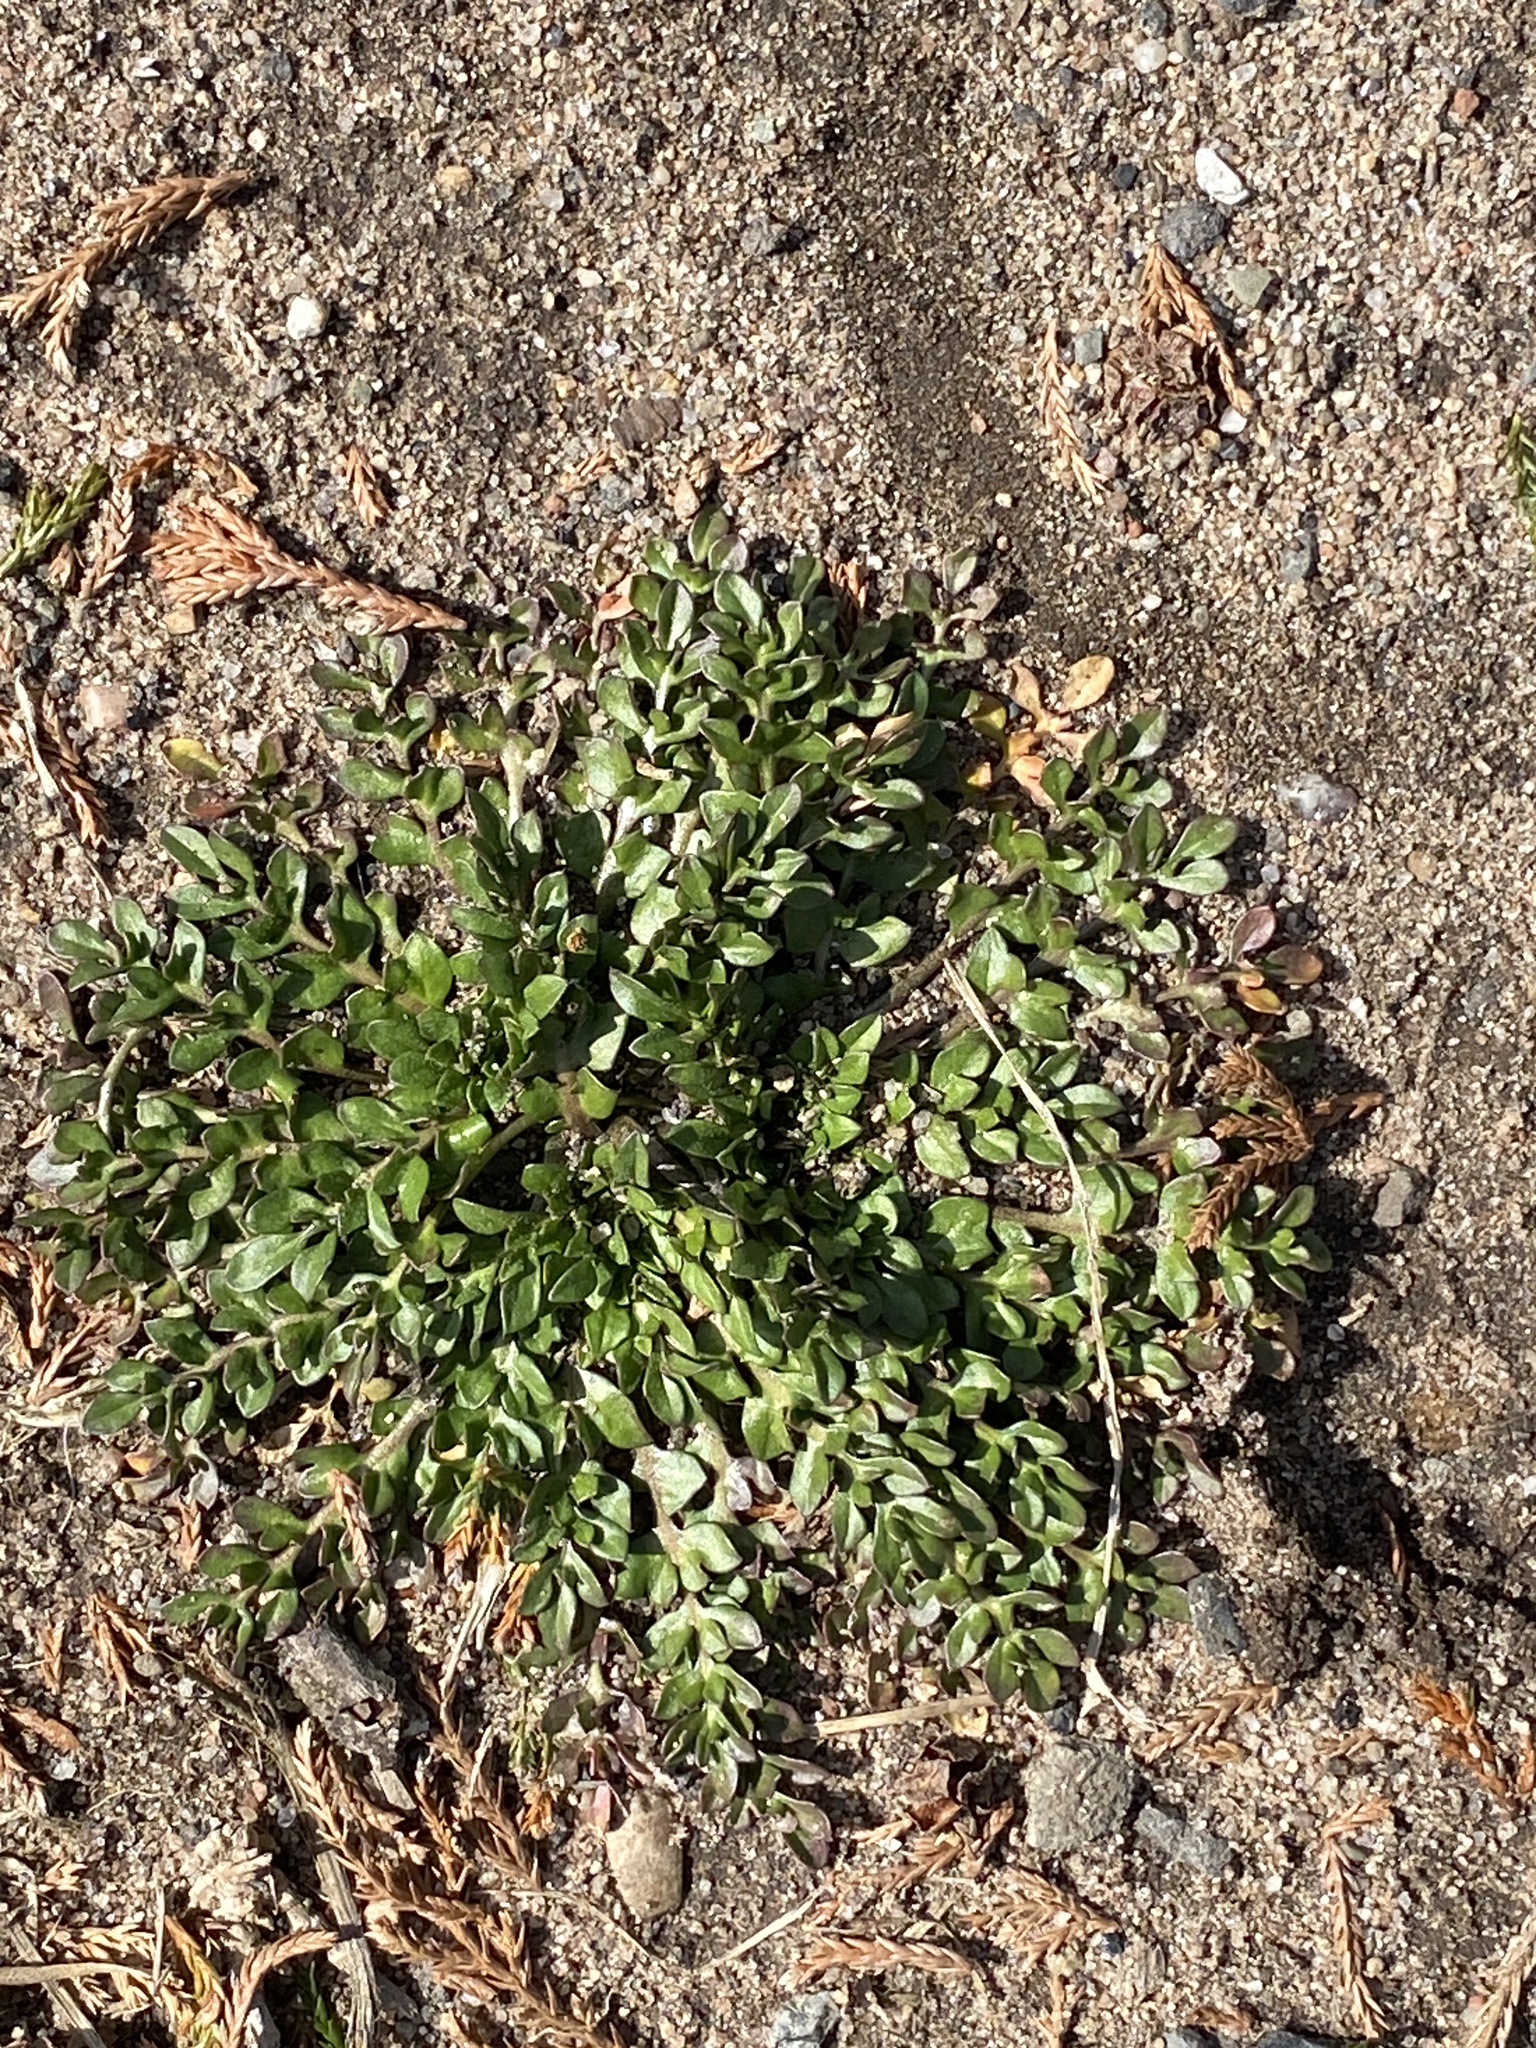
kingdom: Plantae
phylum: Tracheophyta
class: Magnoliopsida
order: Brassicales
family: Brassicaceae
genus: Capsella
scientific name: Capsella bursa-pastoris
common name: Shepherd's purse
